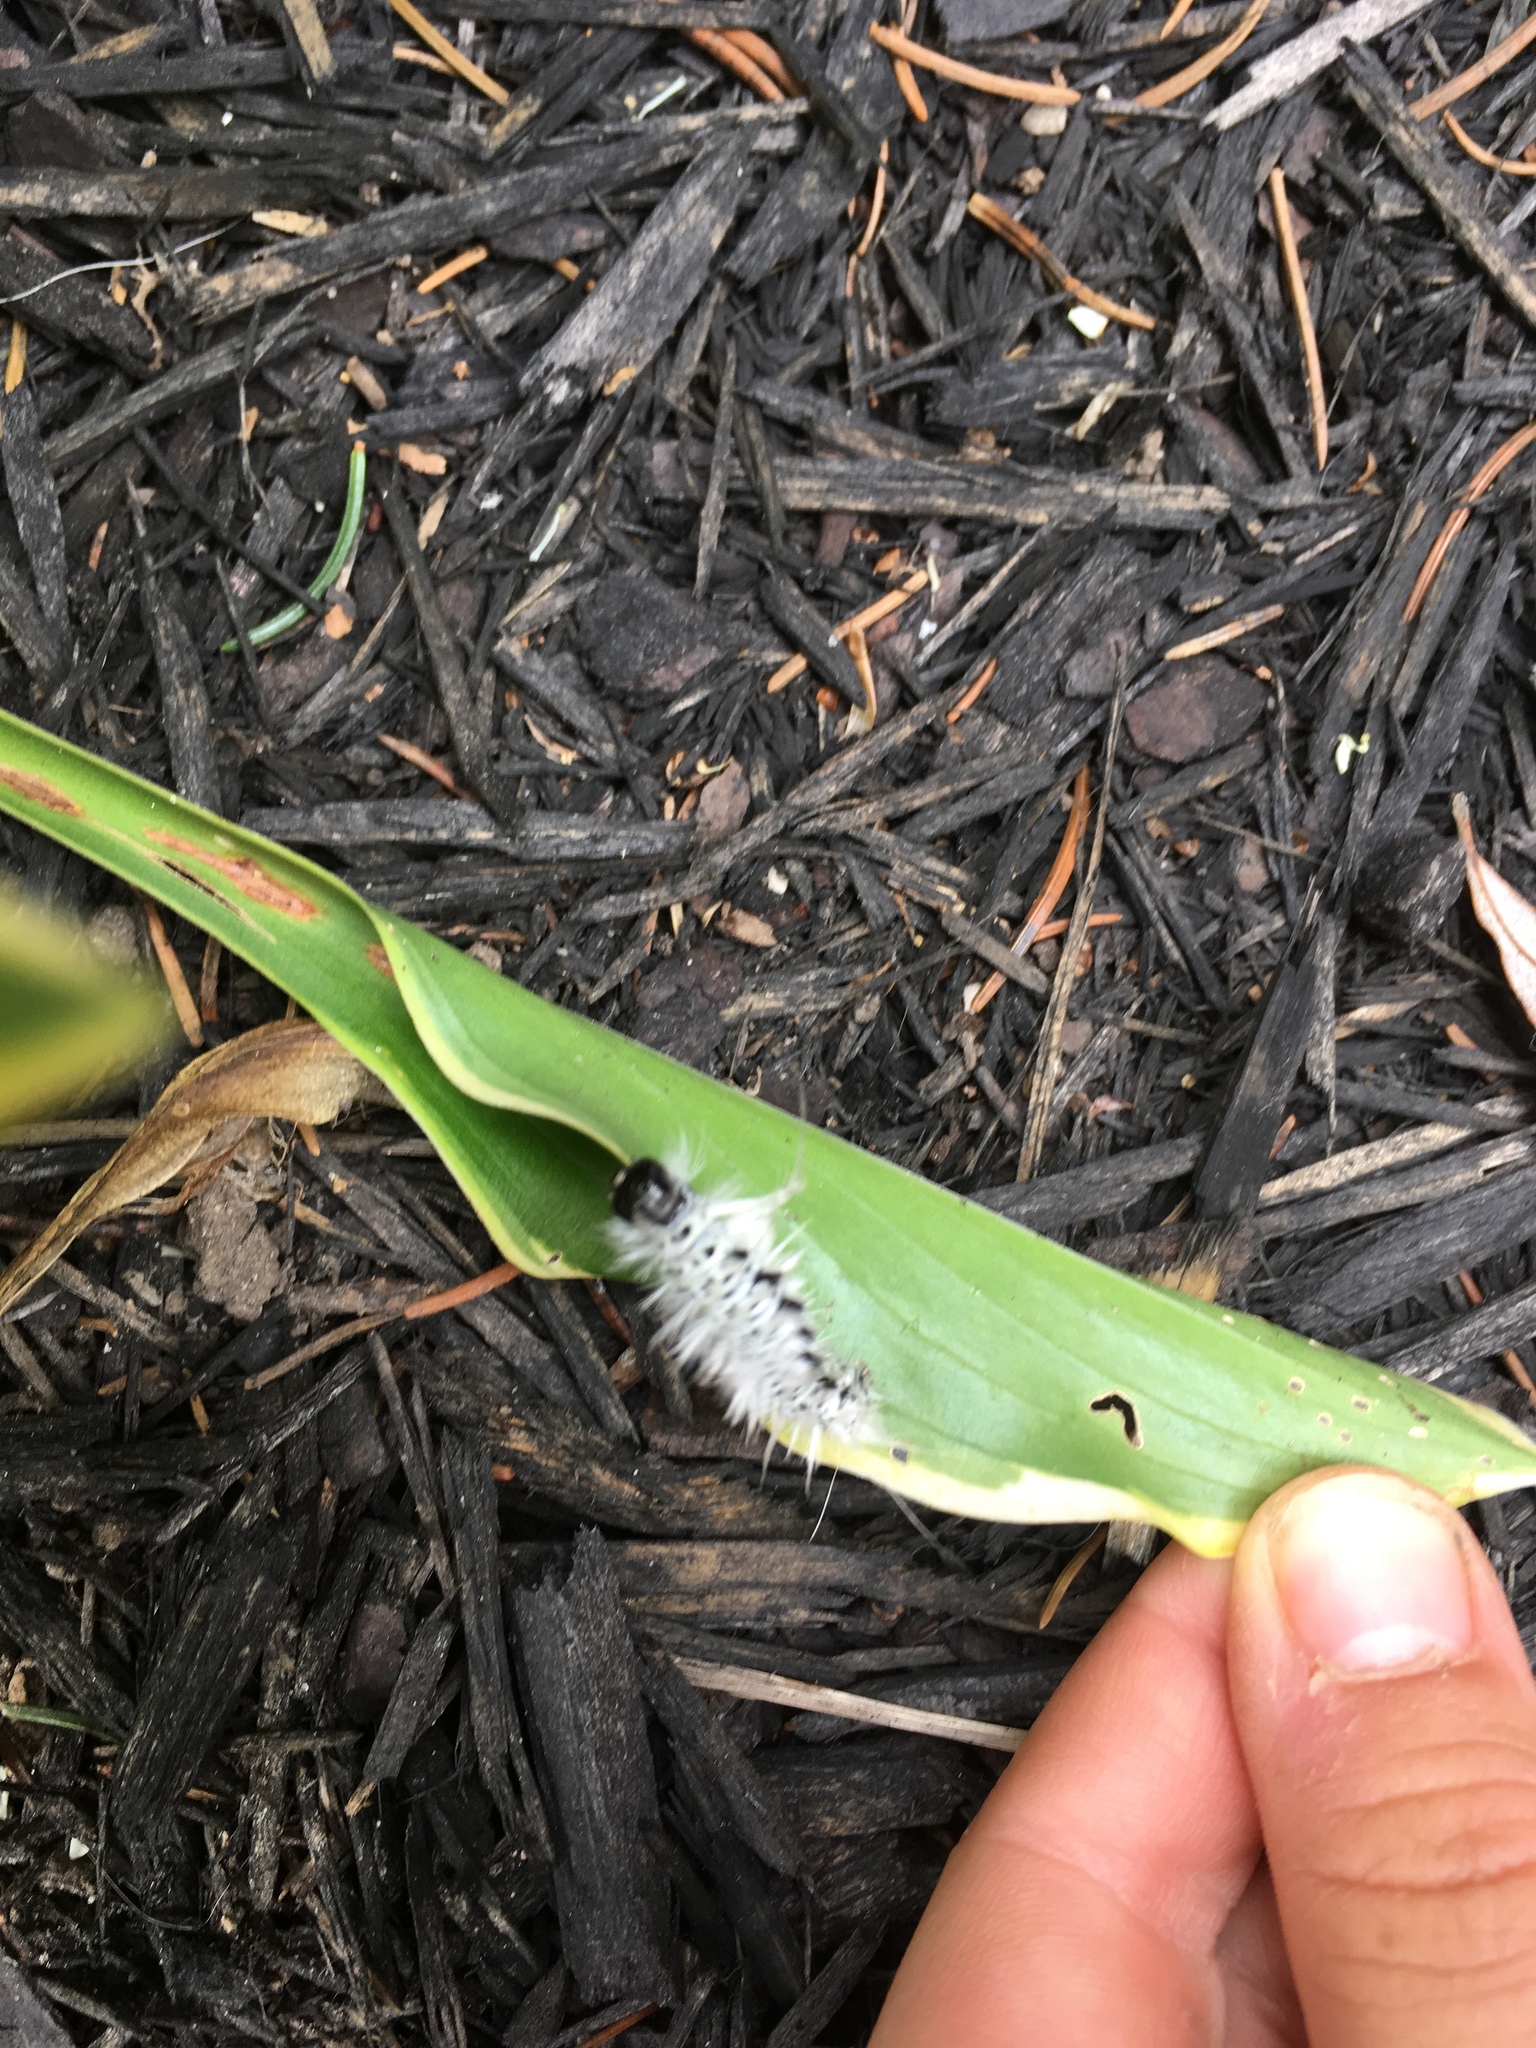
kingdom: Animalia
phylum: Arthropoda
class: Insecta
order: Lepidoptera
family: Erebidae
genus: Lophocampa
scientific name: Lophocampa caryae
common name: Hickory tussock moth
